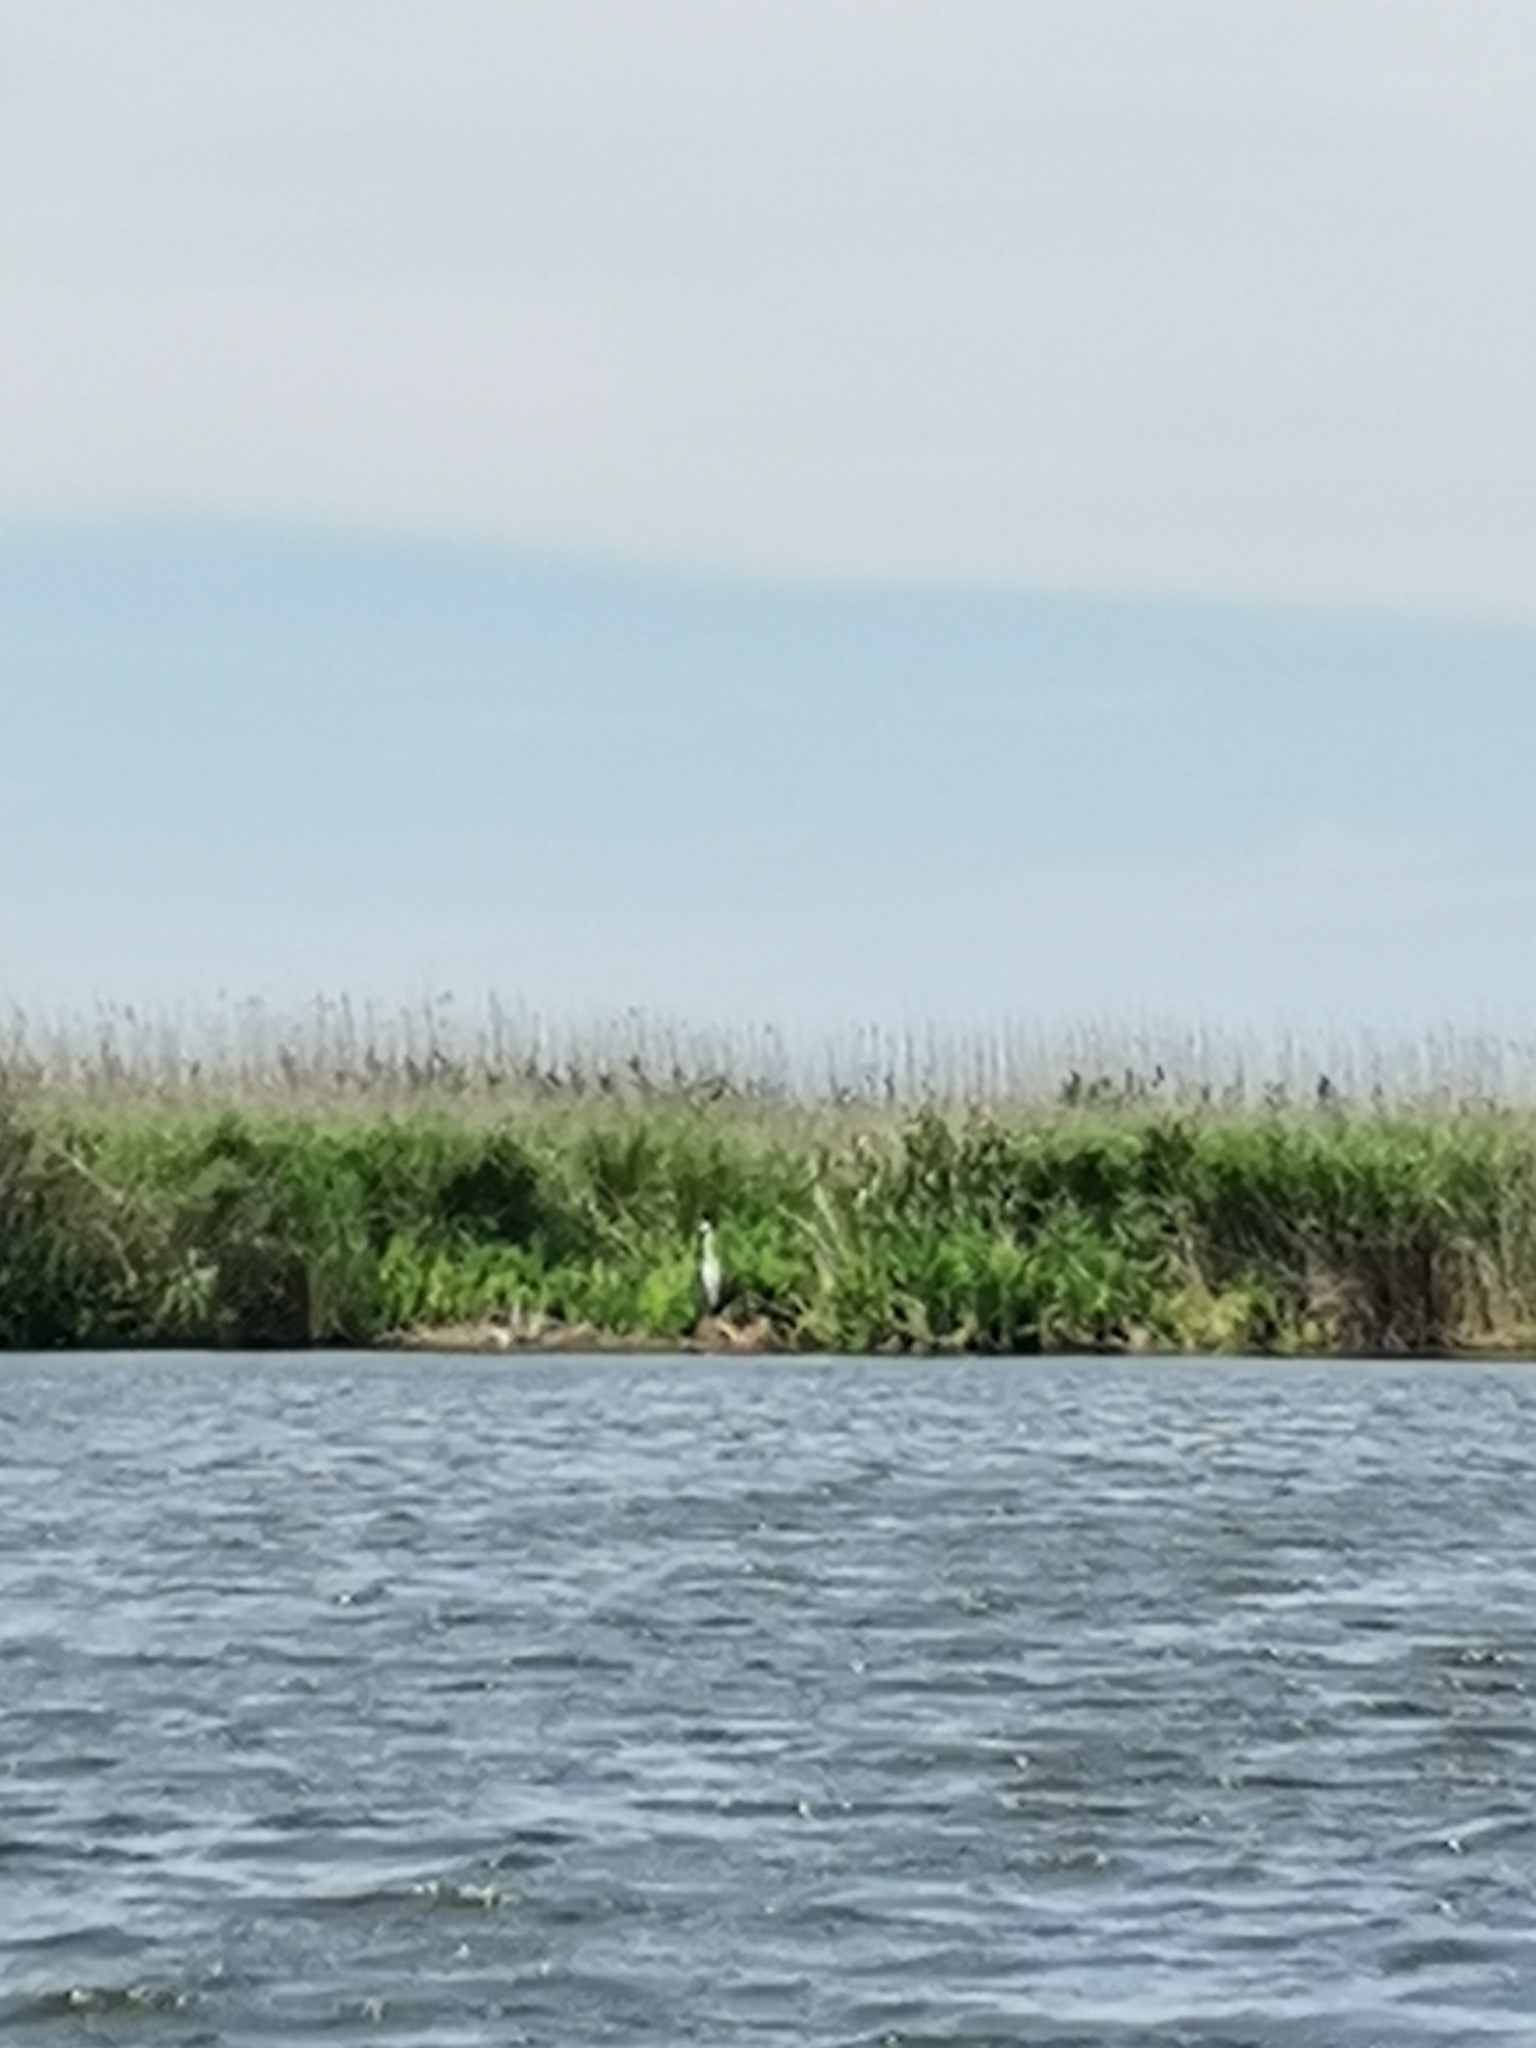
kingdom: Animalia
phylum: Chordata
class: Aves
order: Pelecaniformes
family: Ardeidae
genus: Ardea
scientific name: Ardea alba
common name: Great egret
